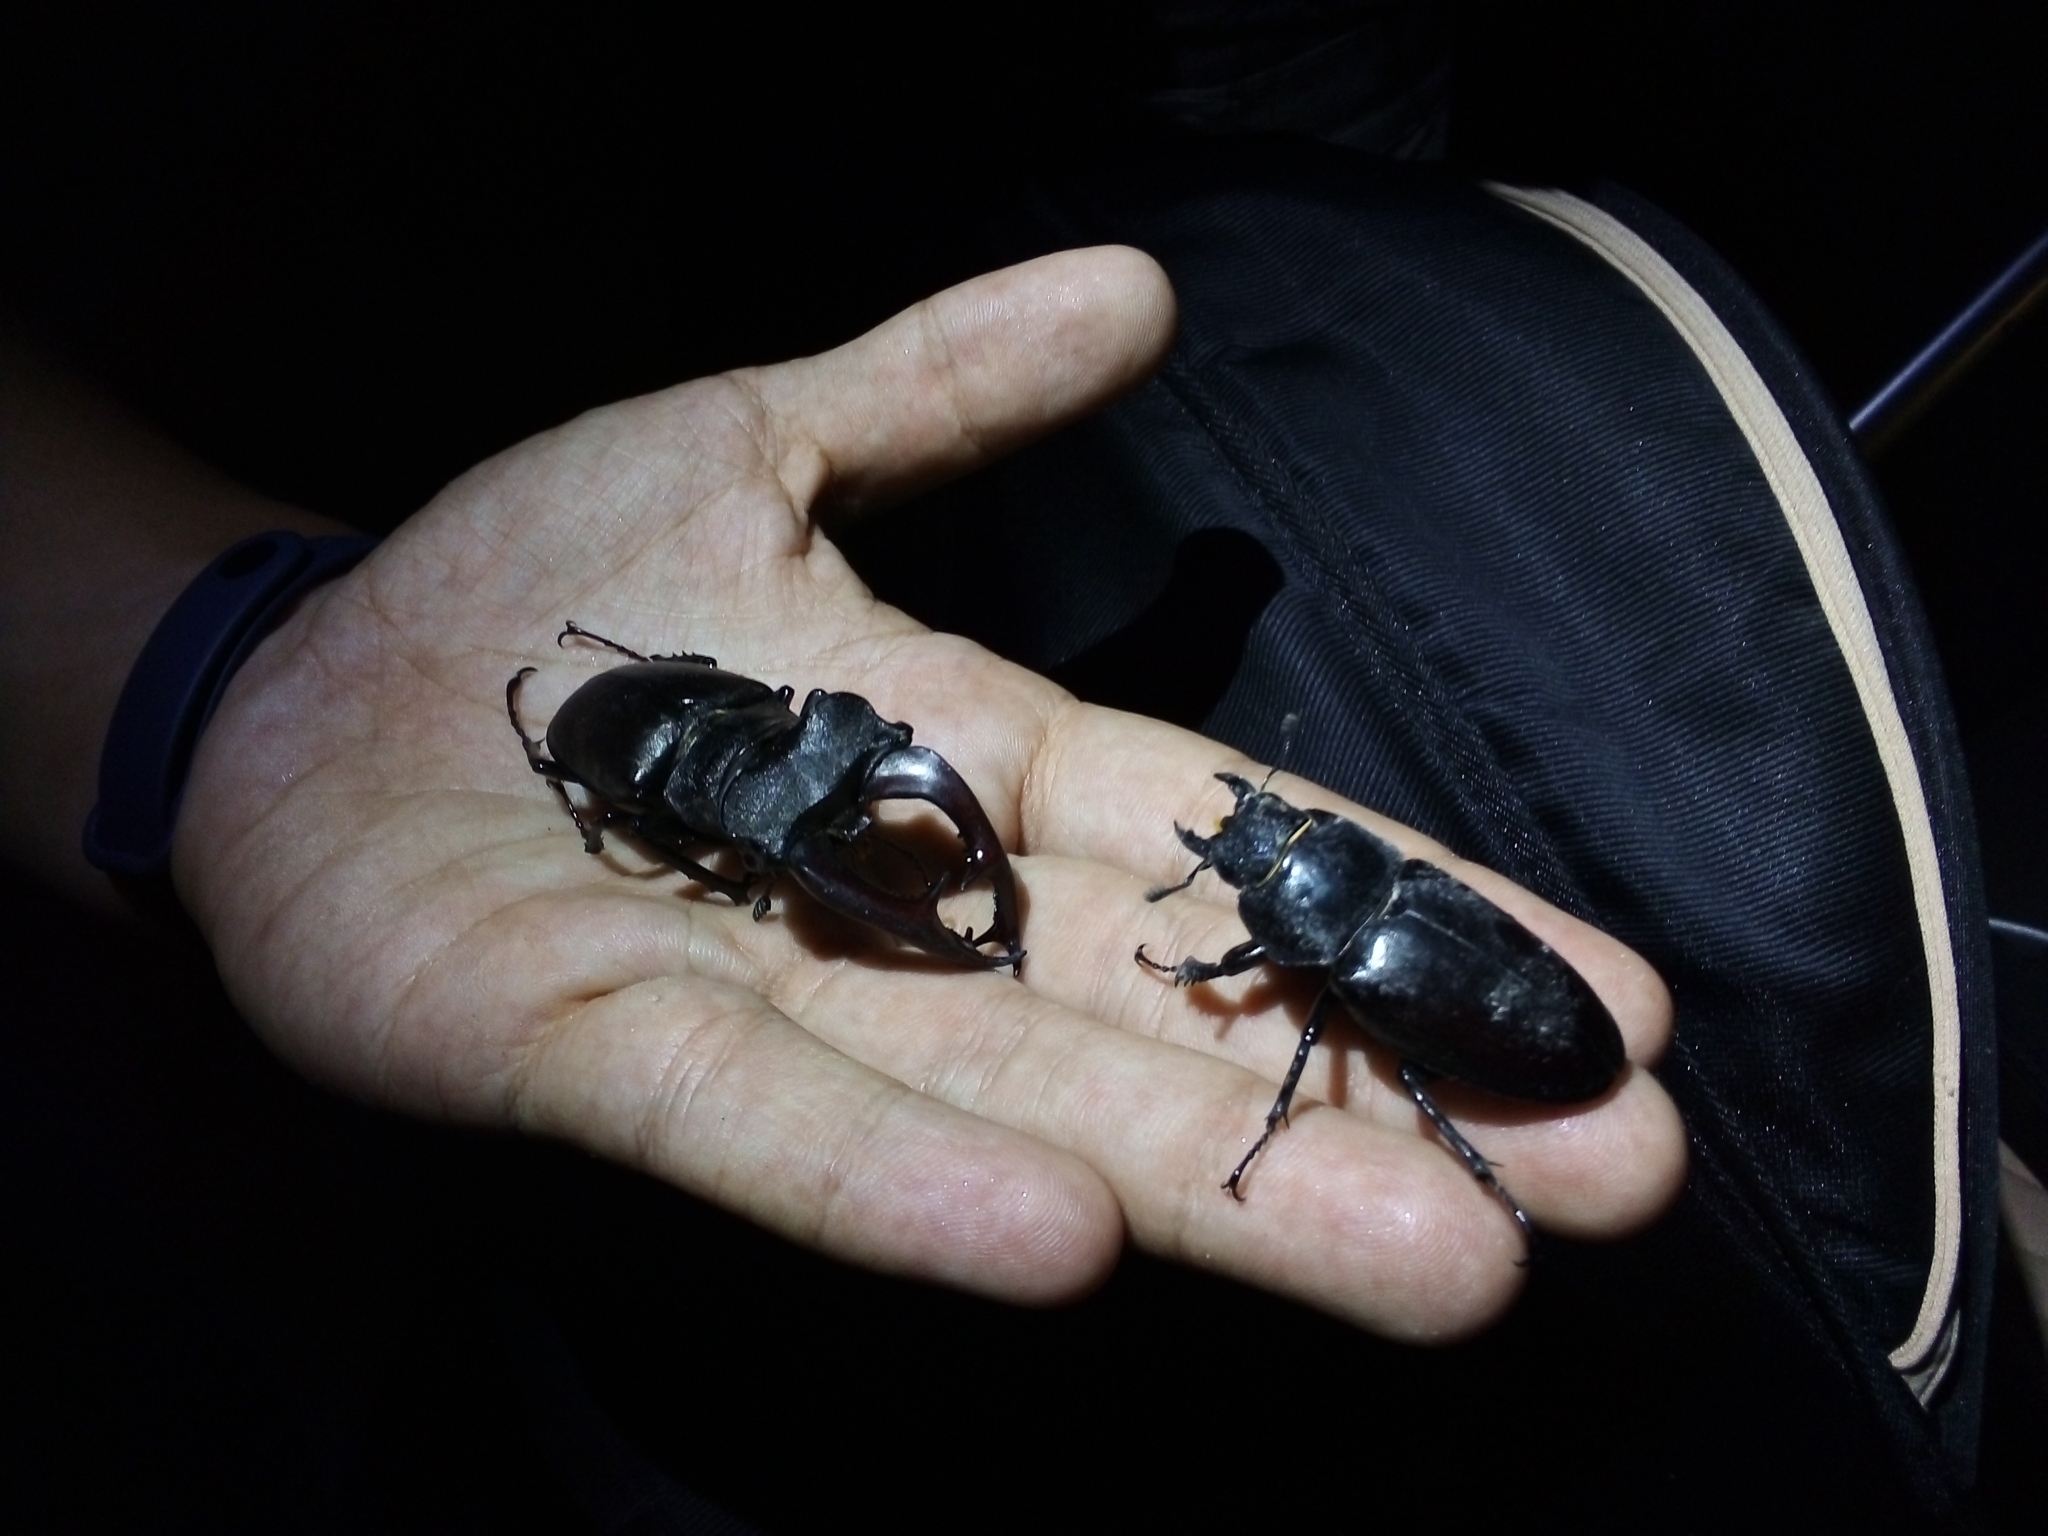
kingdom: Animalia
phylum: Arthropoda
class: Insecta
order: Coleoptera
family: Lucanidae
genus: Lucanus
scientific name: Lucanus cervus
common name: Stag beetle
